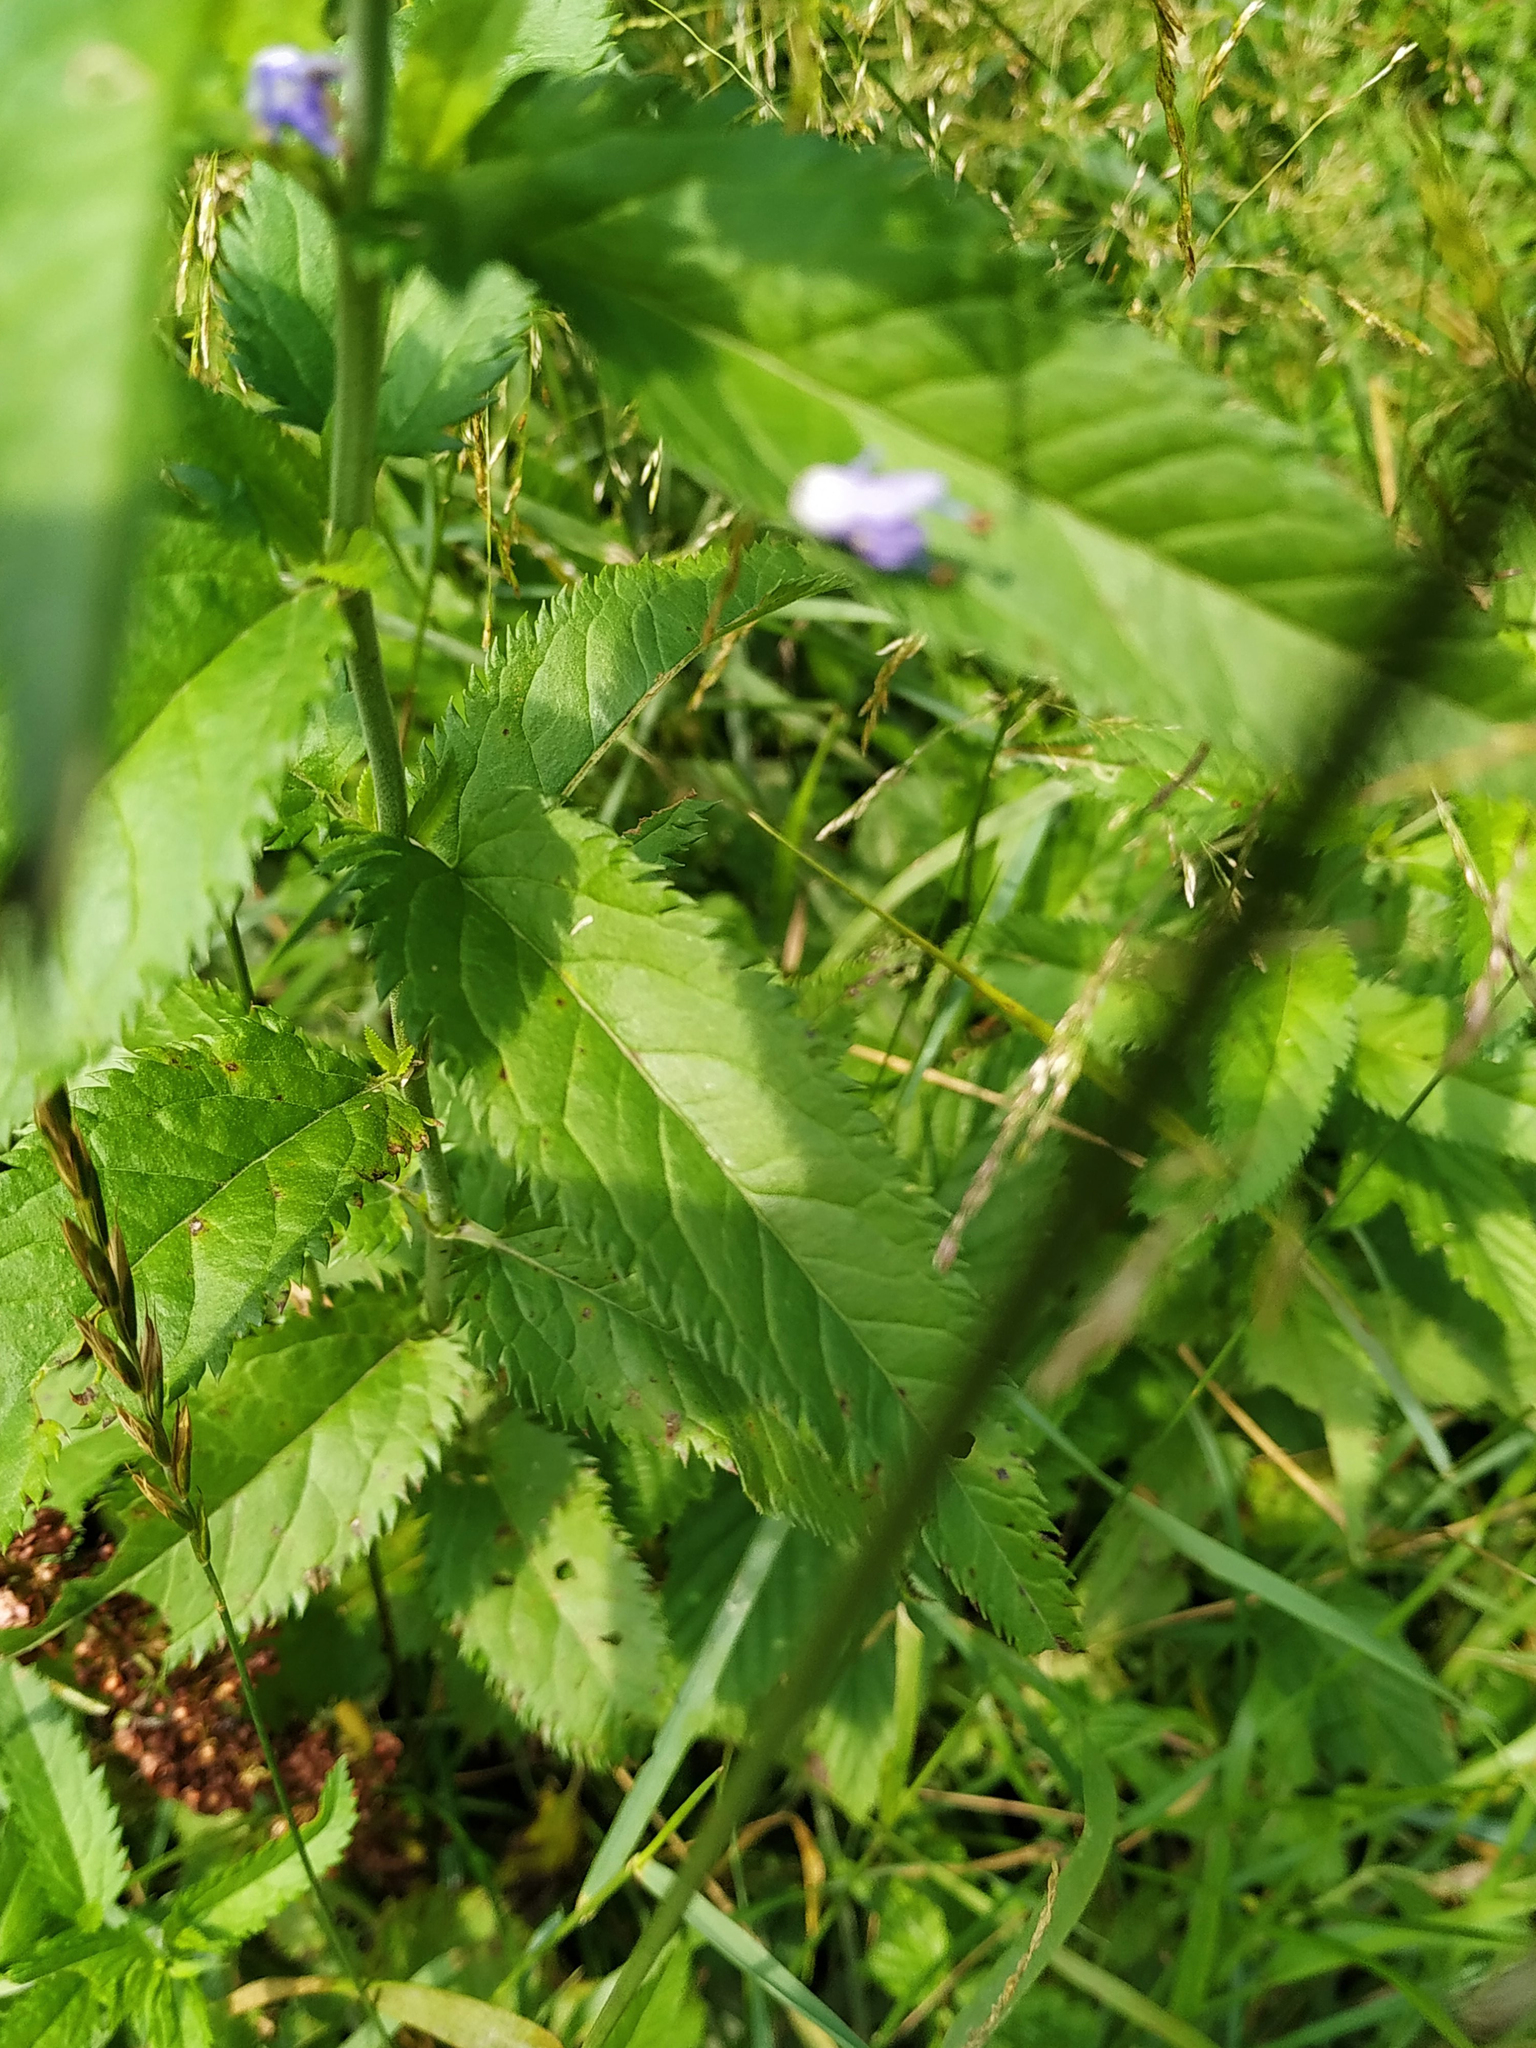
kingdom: Plantae
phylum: Tracheophyta
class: Magnoliopsida
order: Lamiales
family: Plantaginaceae
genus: Veronica
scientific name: Veronica longifolia
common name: Garden speedwell
